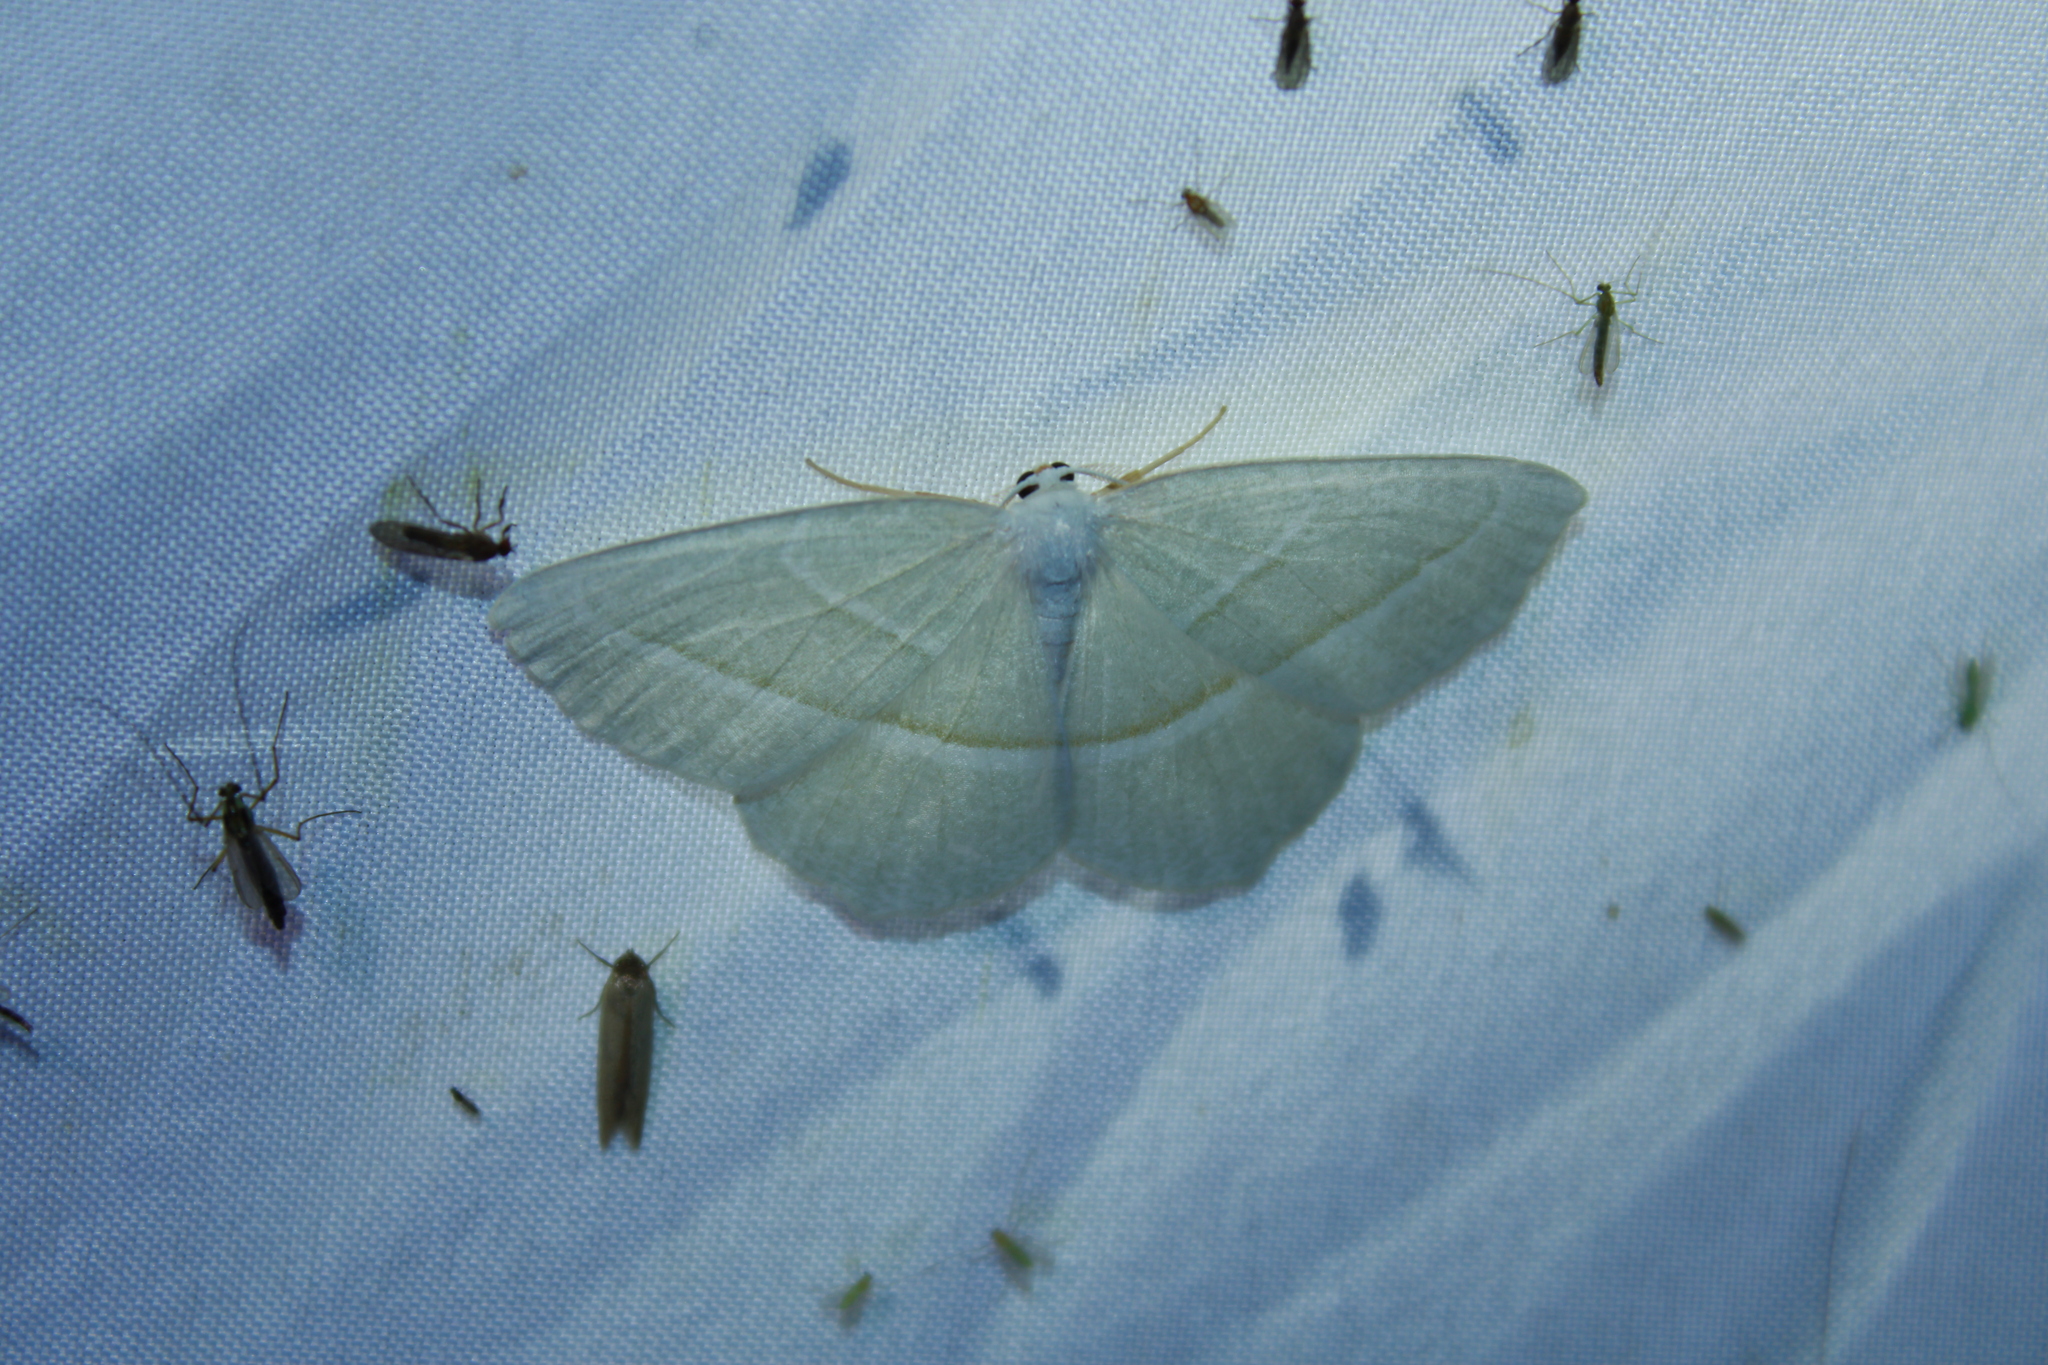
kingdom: Animalia
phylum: Arthropoda
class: Insecta
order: Lepidoptera
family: Geometridae
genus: Campaea
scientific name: Campaea perlata
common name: Fringed looper
